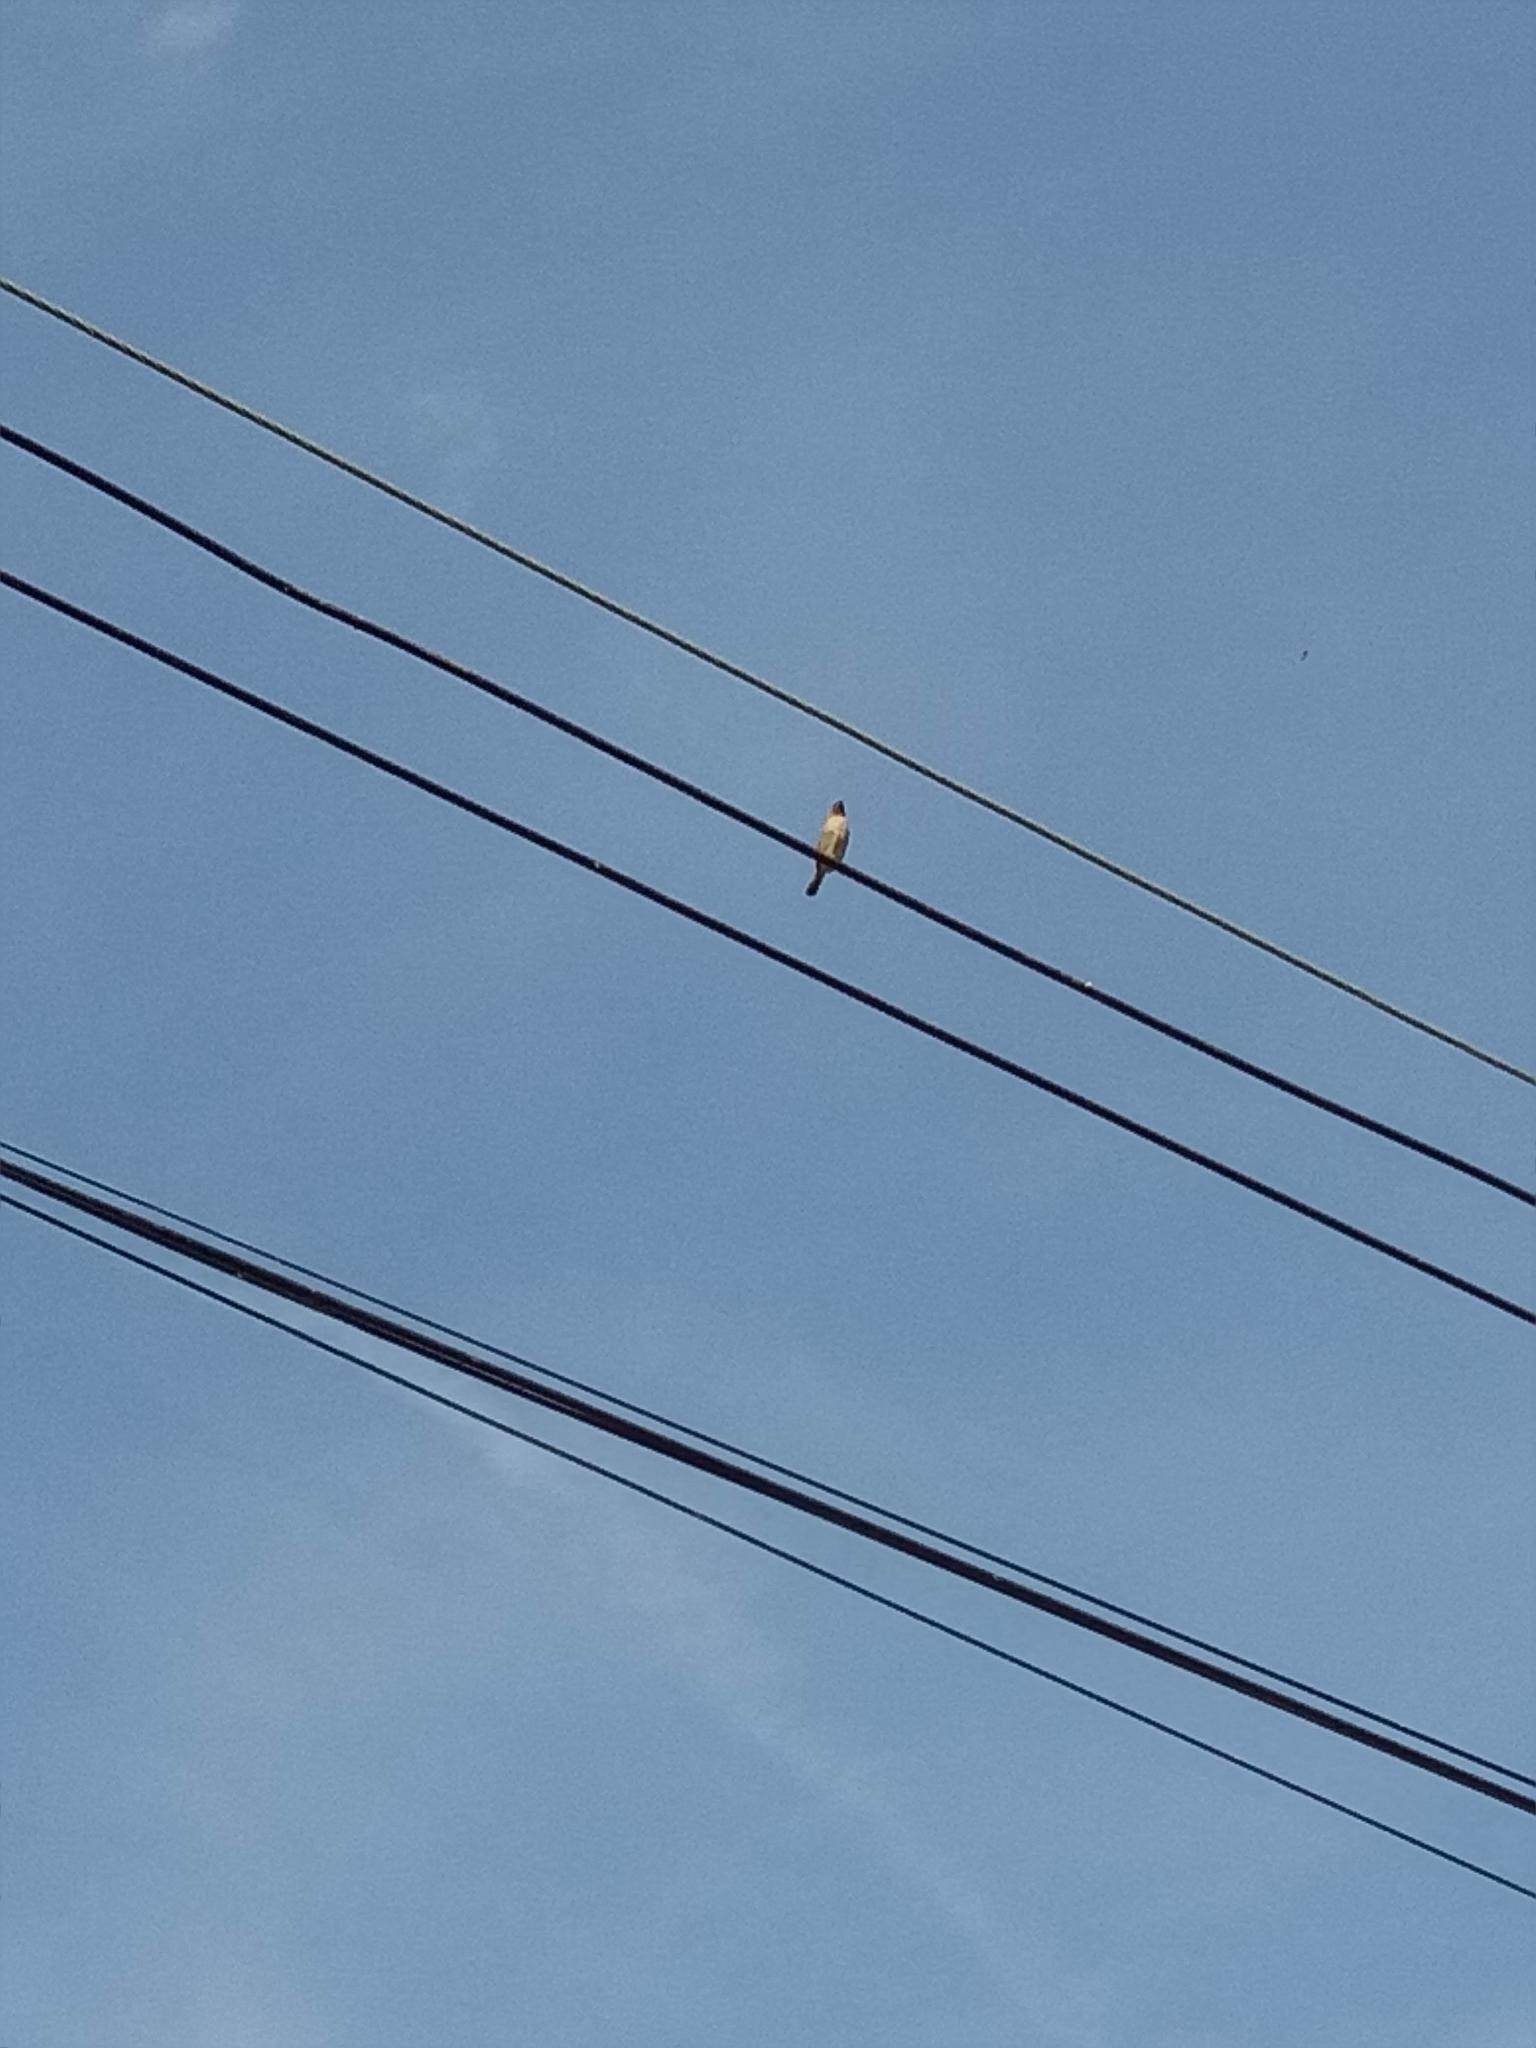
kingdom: Animalia
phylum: Chordata
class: Aves
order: Passeriformes
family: Estrildidae
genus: Lonchura
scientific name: Lonchura punctulata
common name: Scaly-breasted munia
